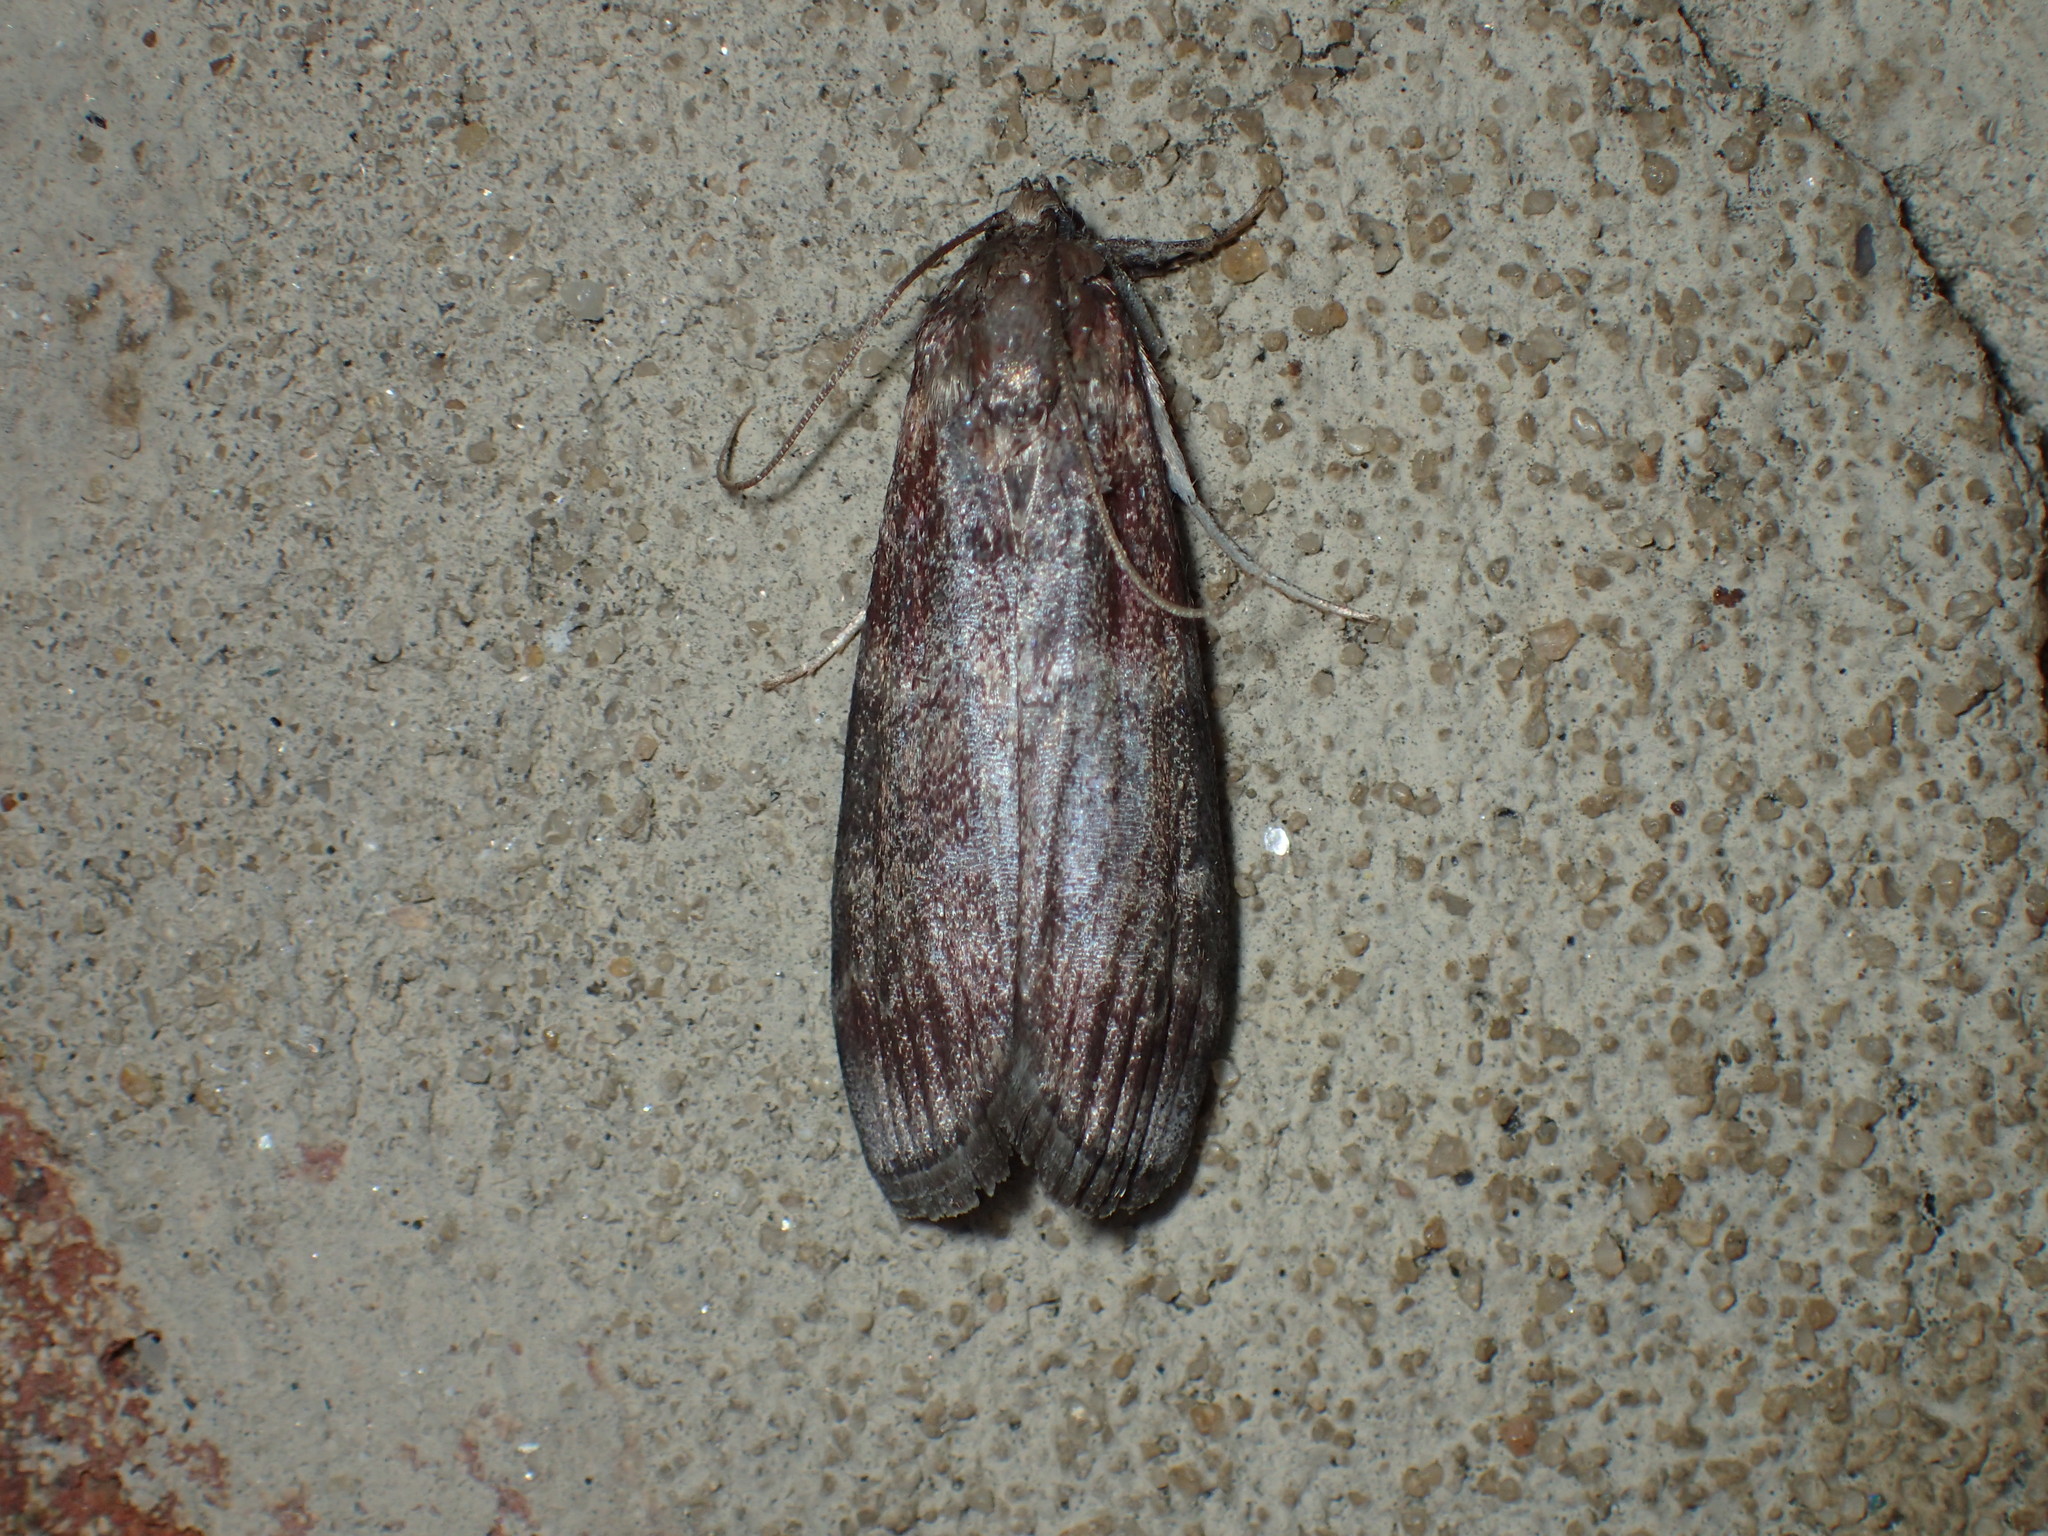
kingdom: Animalia
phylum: Arthropoda
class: Insecta
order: Lepidoptera
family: Pyralidae
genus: Euzophera
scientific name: Euzophera ostricolorella
